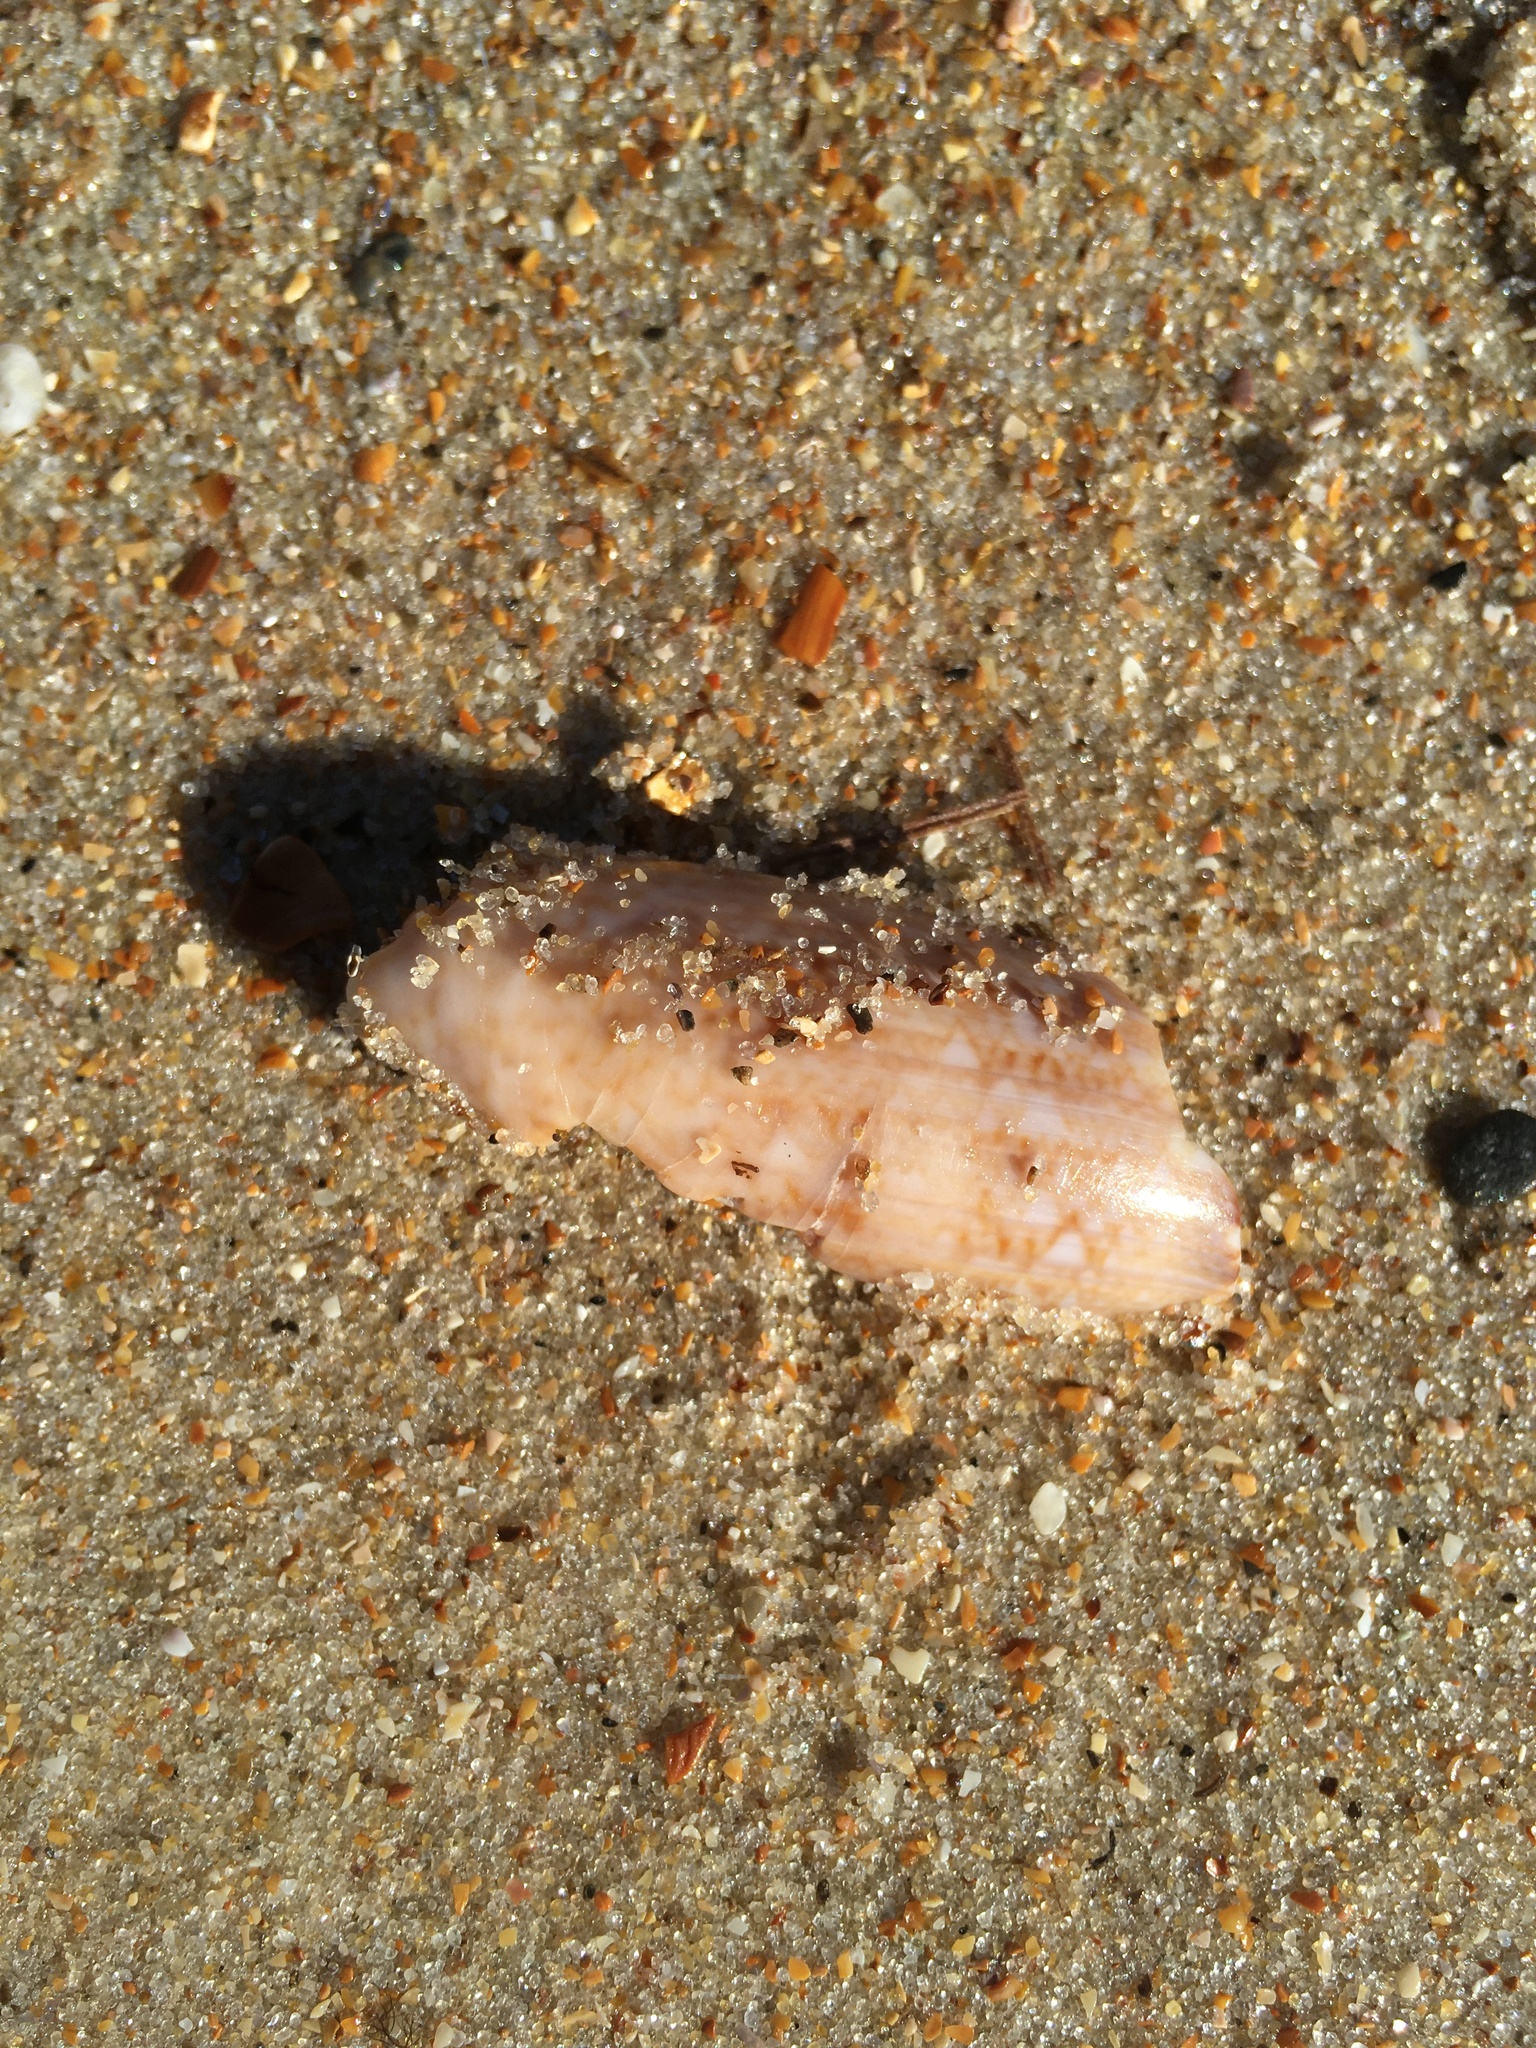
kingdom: Animalia
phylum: Mollusca
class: Gastropoda
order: Neogastropoda
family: Olividae
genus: Oliva
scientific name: Oliva sayana
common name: Lettered olive
